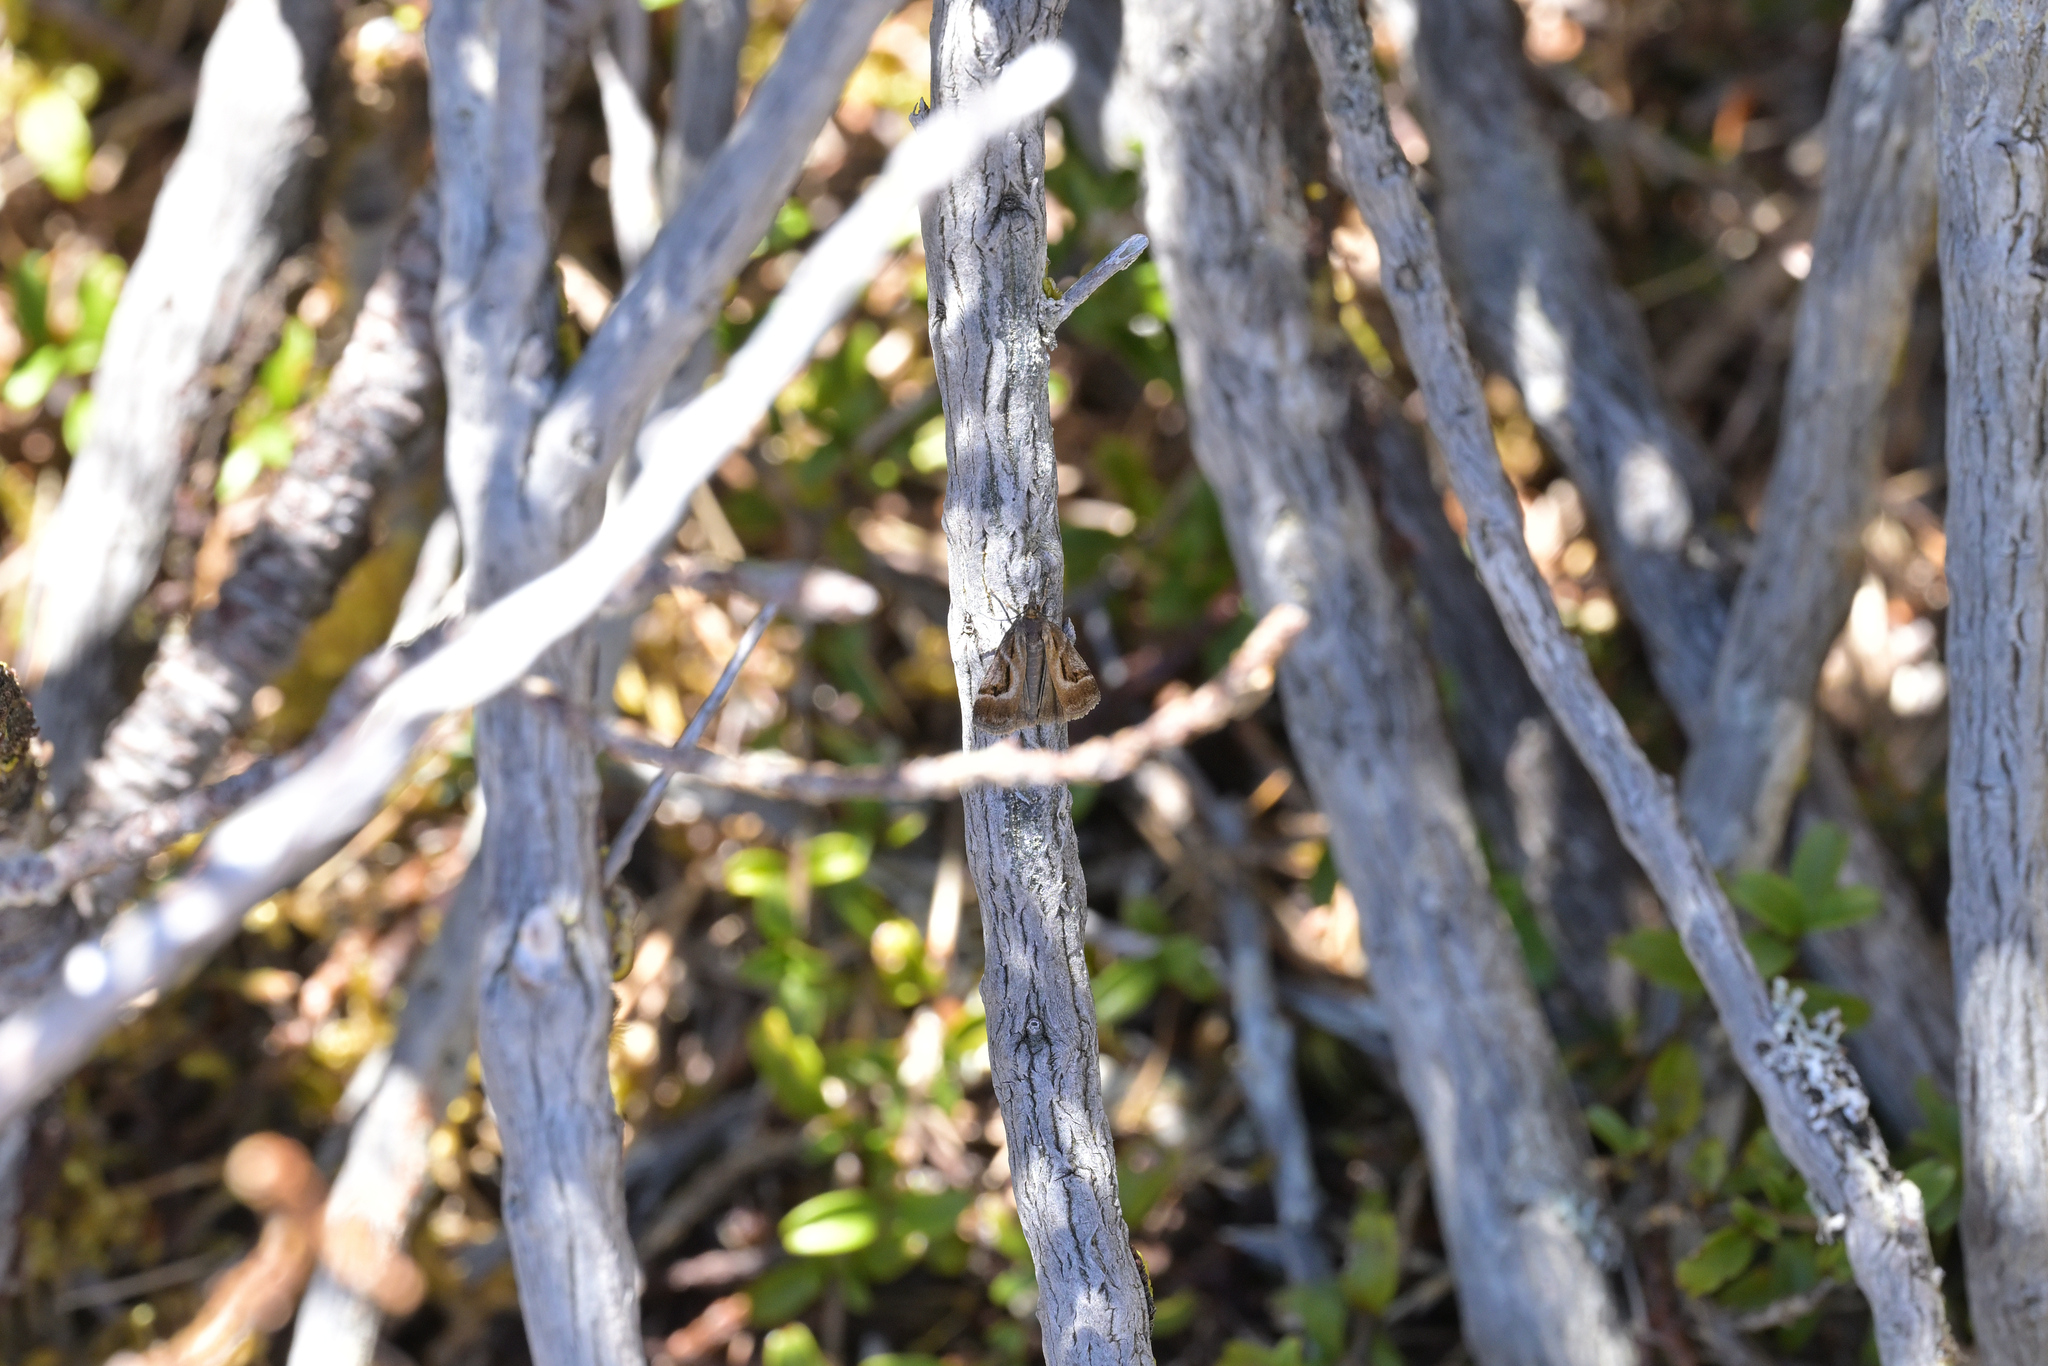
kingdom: Animalia
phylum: Arthropoda
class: Insecta
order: Lepidoptera
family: Crambidae
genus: Eudonia
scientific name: Eudonia hemicycla
